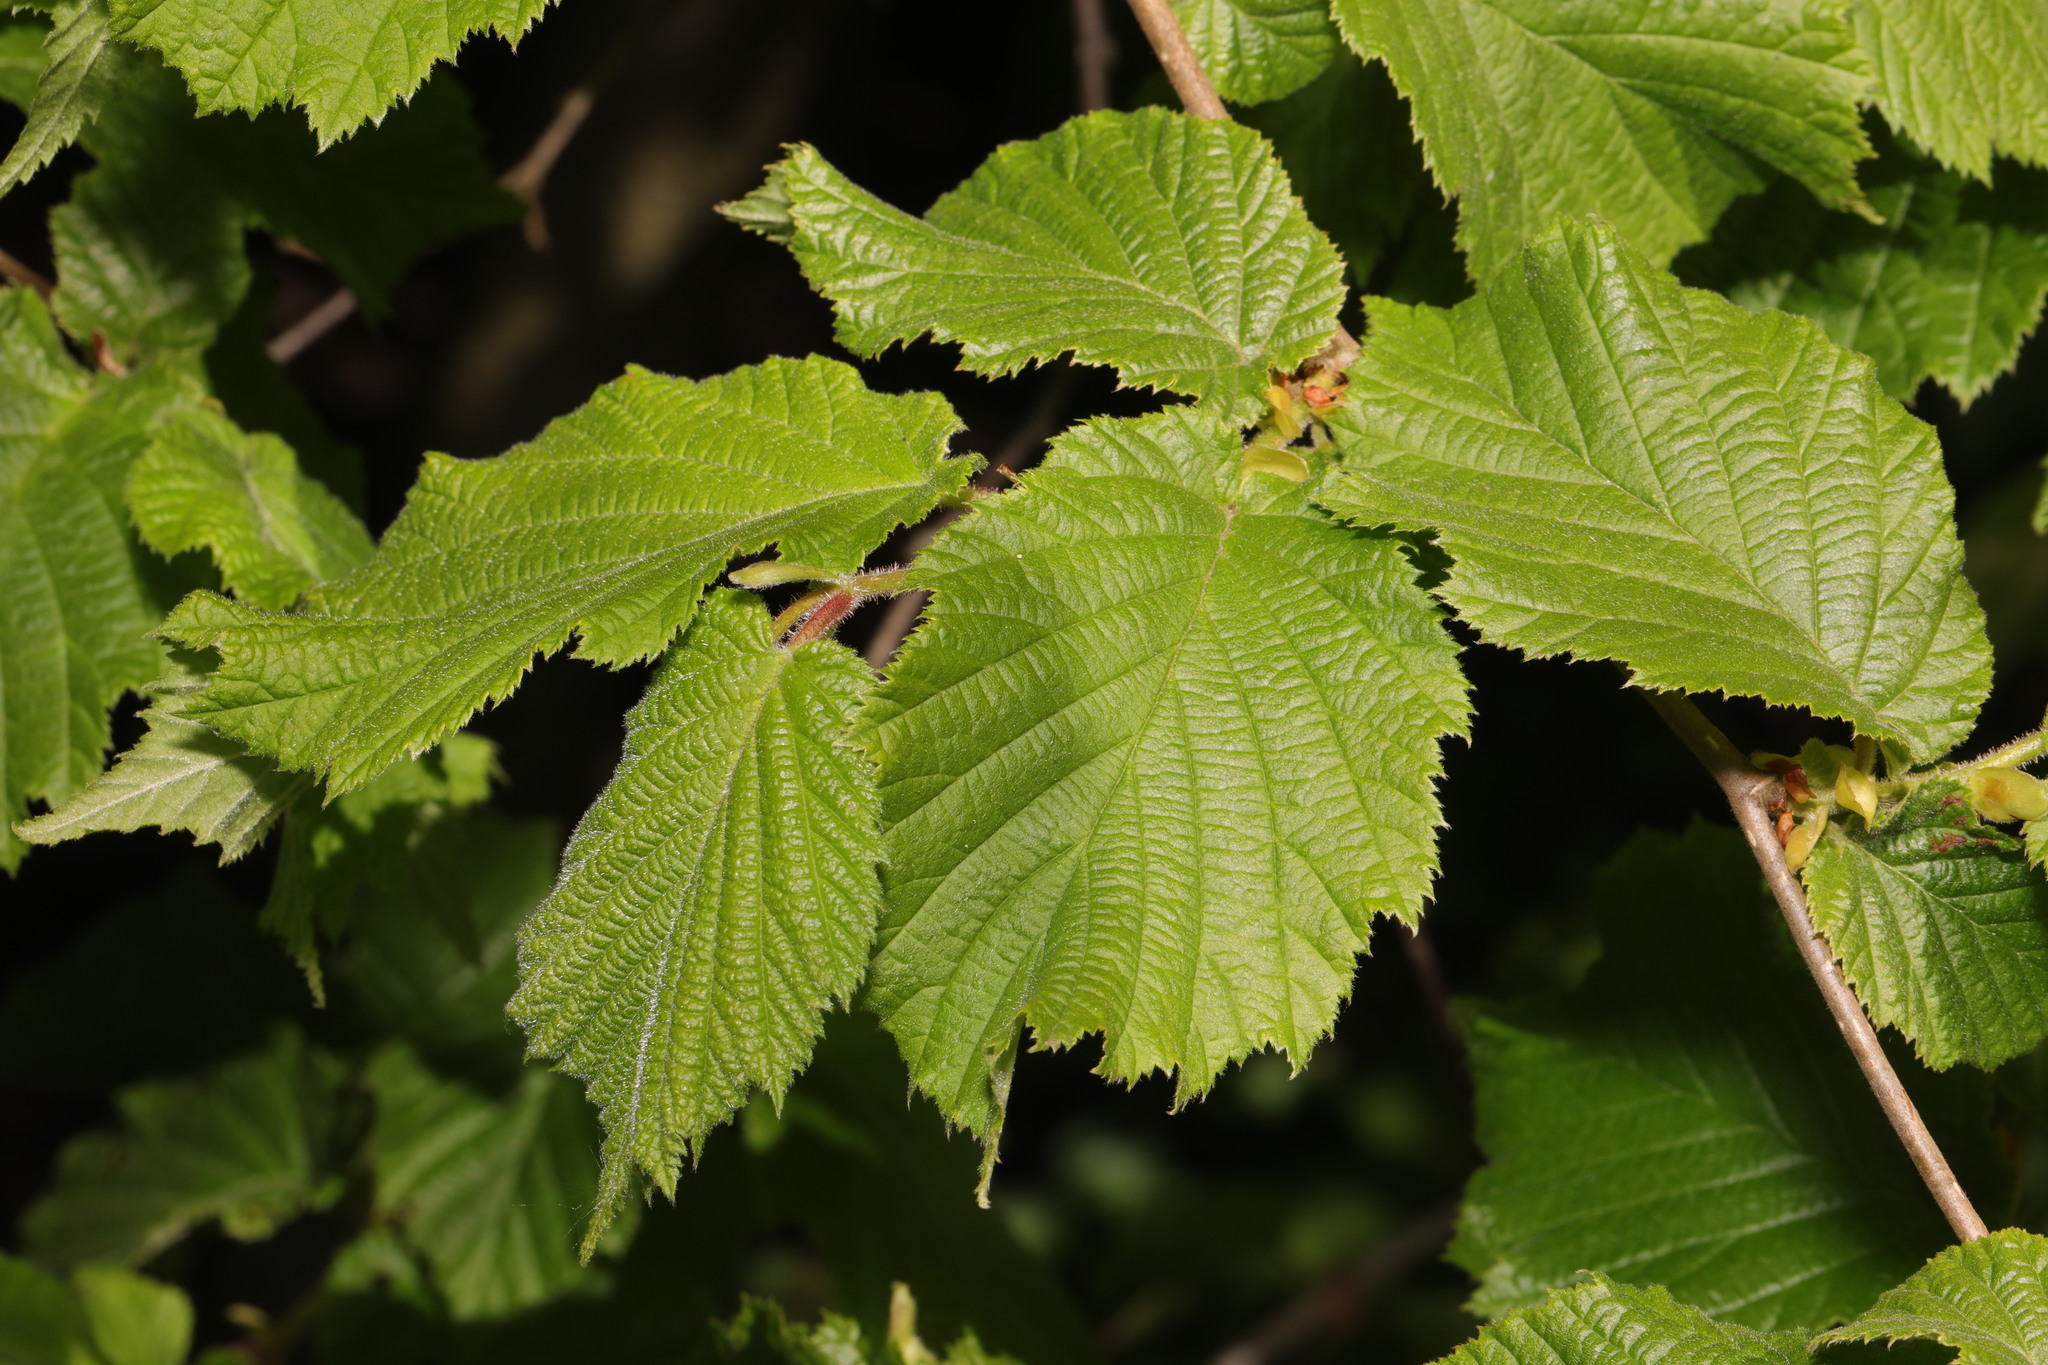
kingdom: Plantae
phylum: Tracheophyta
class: Magnoliopsida
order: Fagales
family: Betulaceae
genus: Corylus
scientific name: Corylus avellana
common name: European hazel
